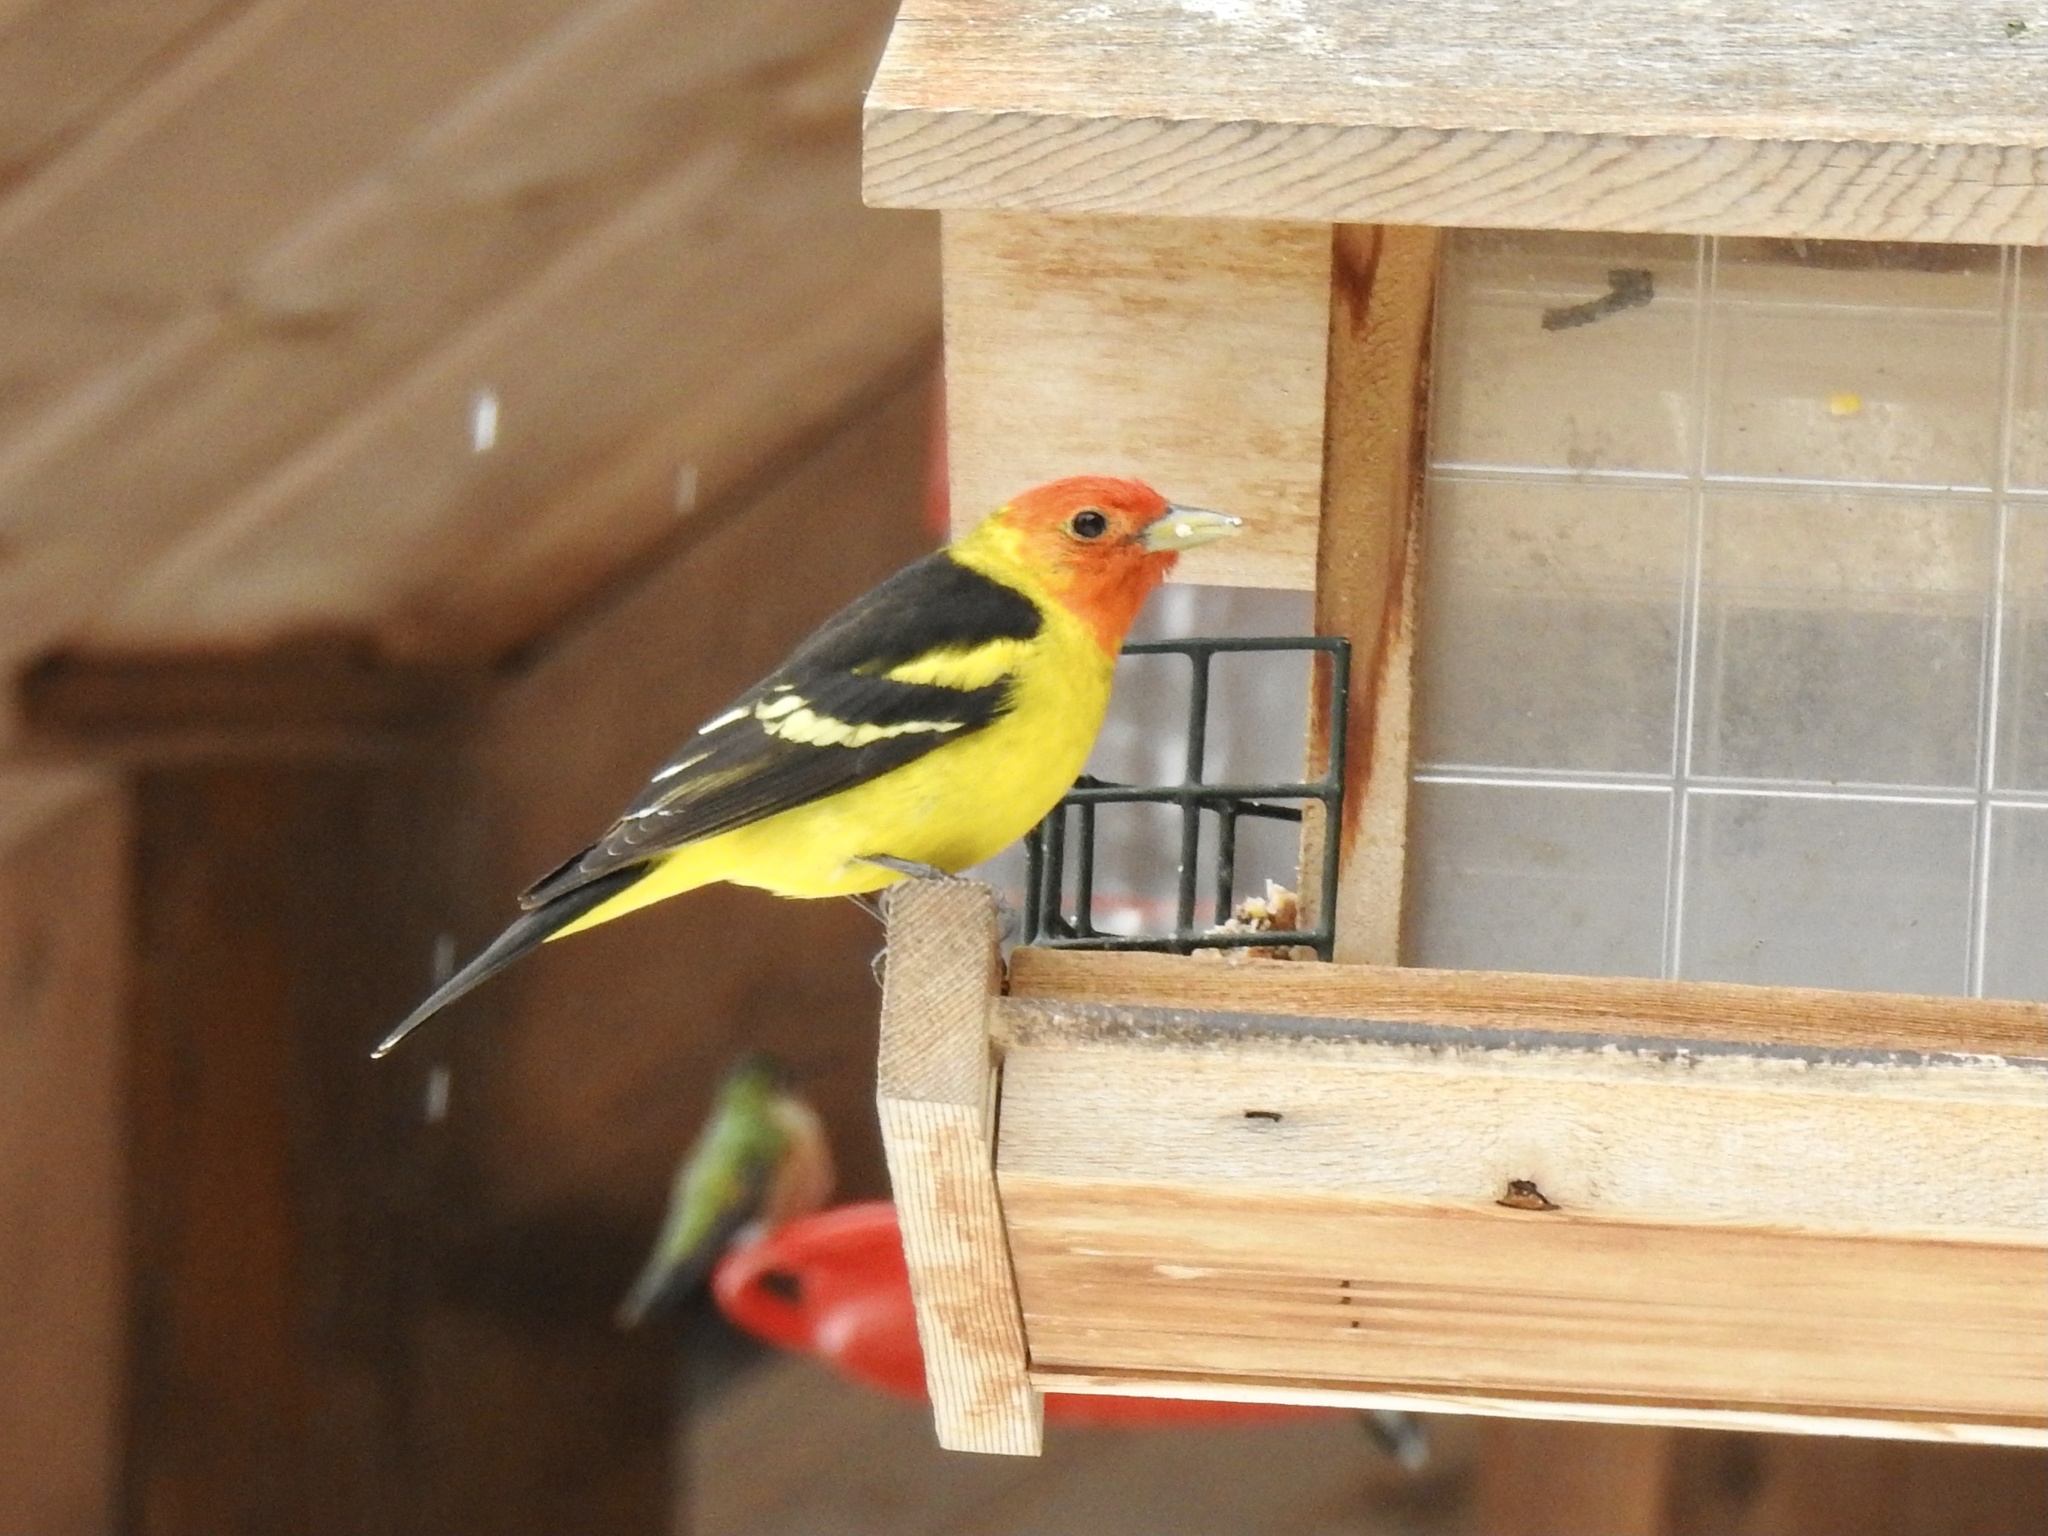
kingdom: Animalia
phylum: Chordata
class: Aves
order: Passeriformes
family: Cardinalidae
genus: Piranga
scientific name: Piranga ludoviciana
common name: Western tanager
